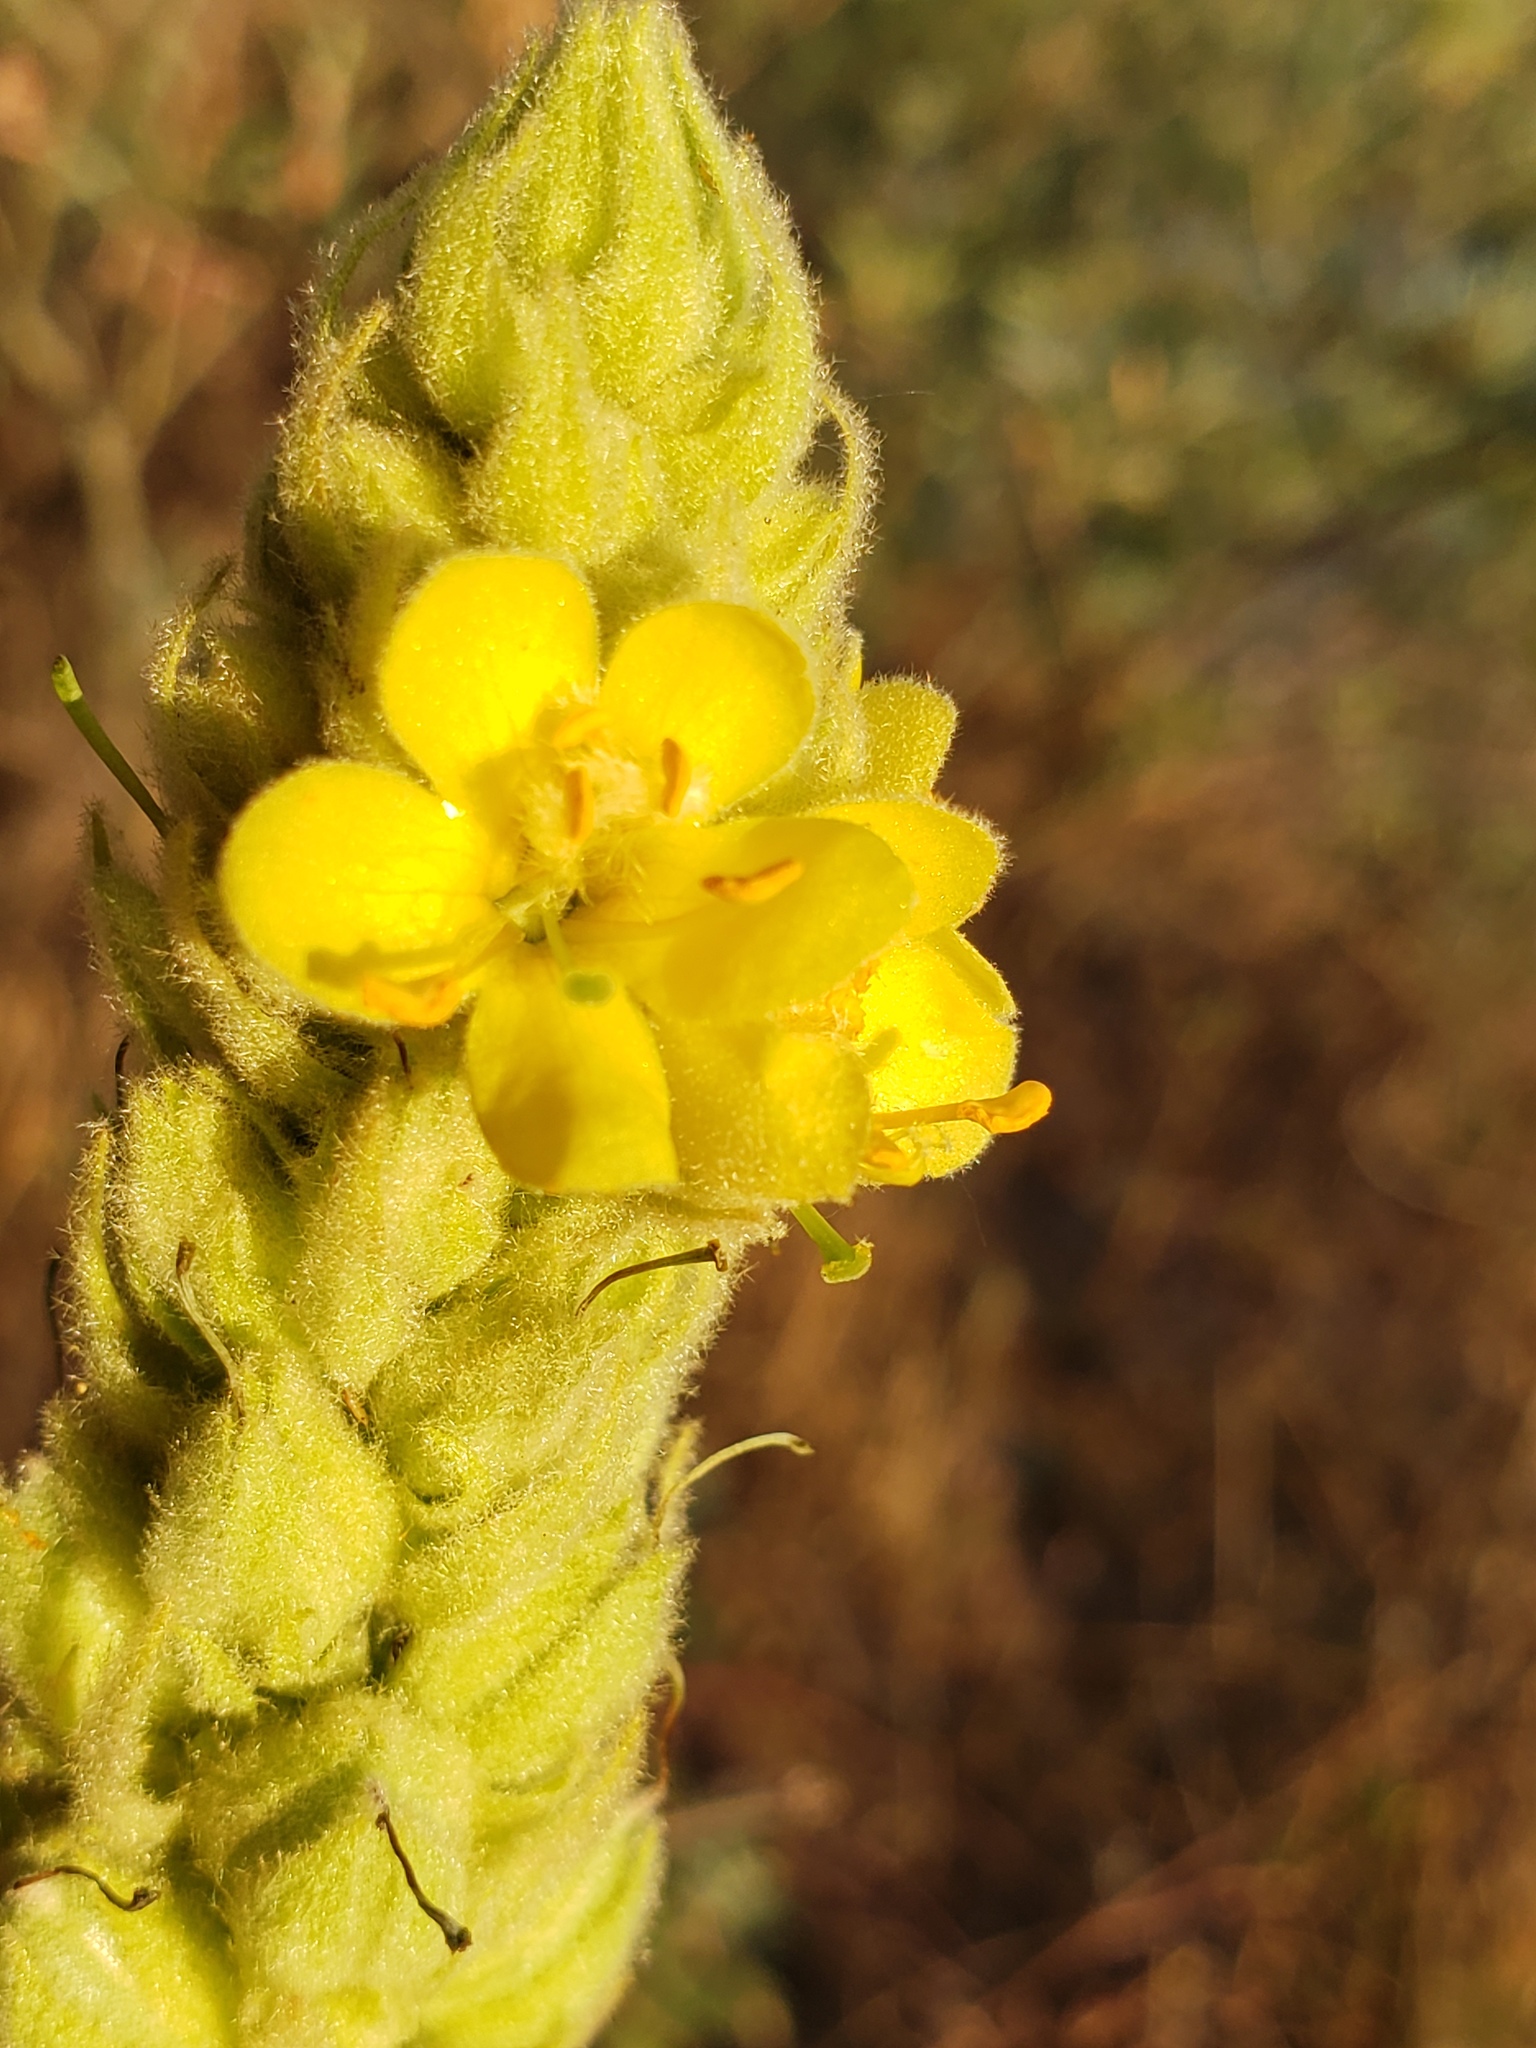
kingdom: Plantae
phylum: Tracheophyta
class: Magnoliopsida
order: Lamiales
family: Scrophulariaceae
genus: Verbascum
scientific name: Verbascum thapsus
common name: Common mullein
